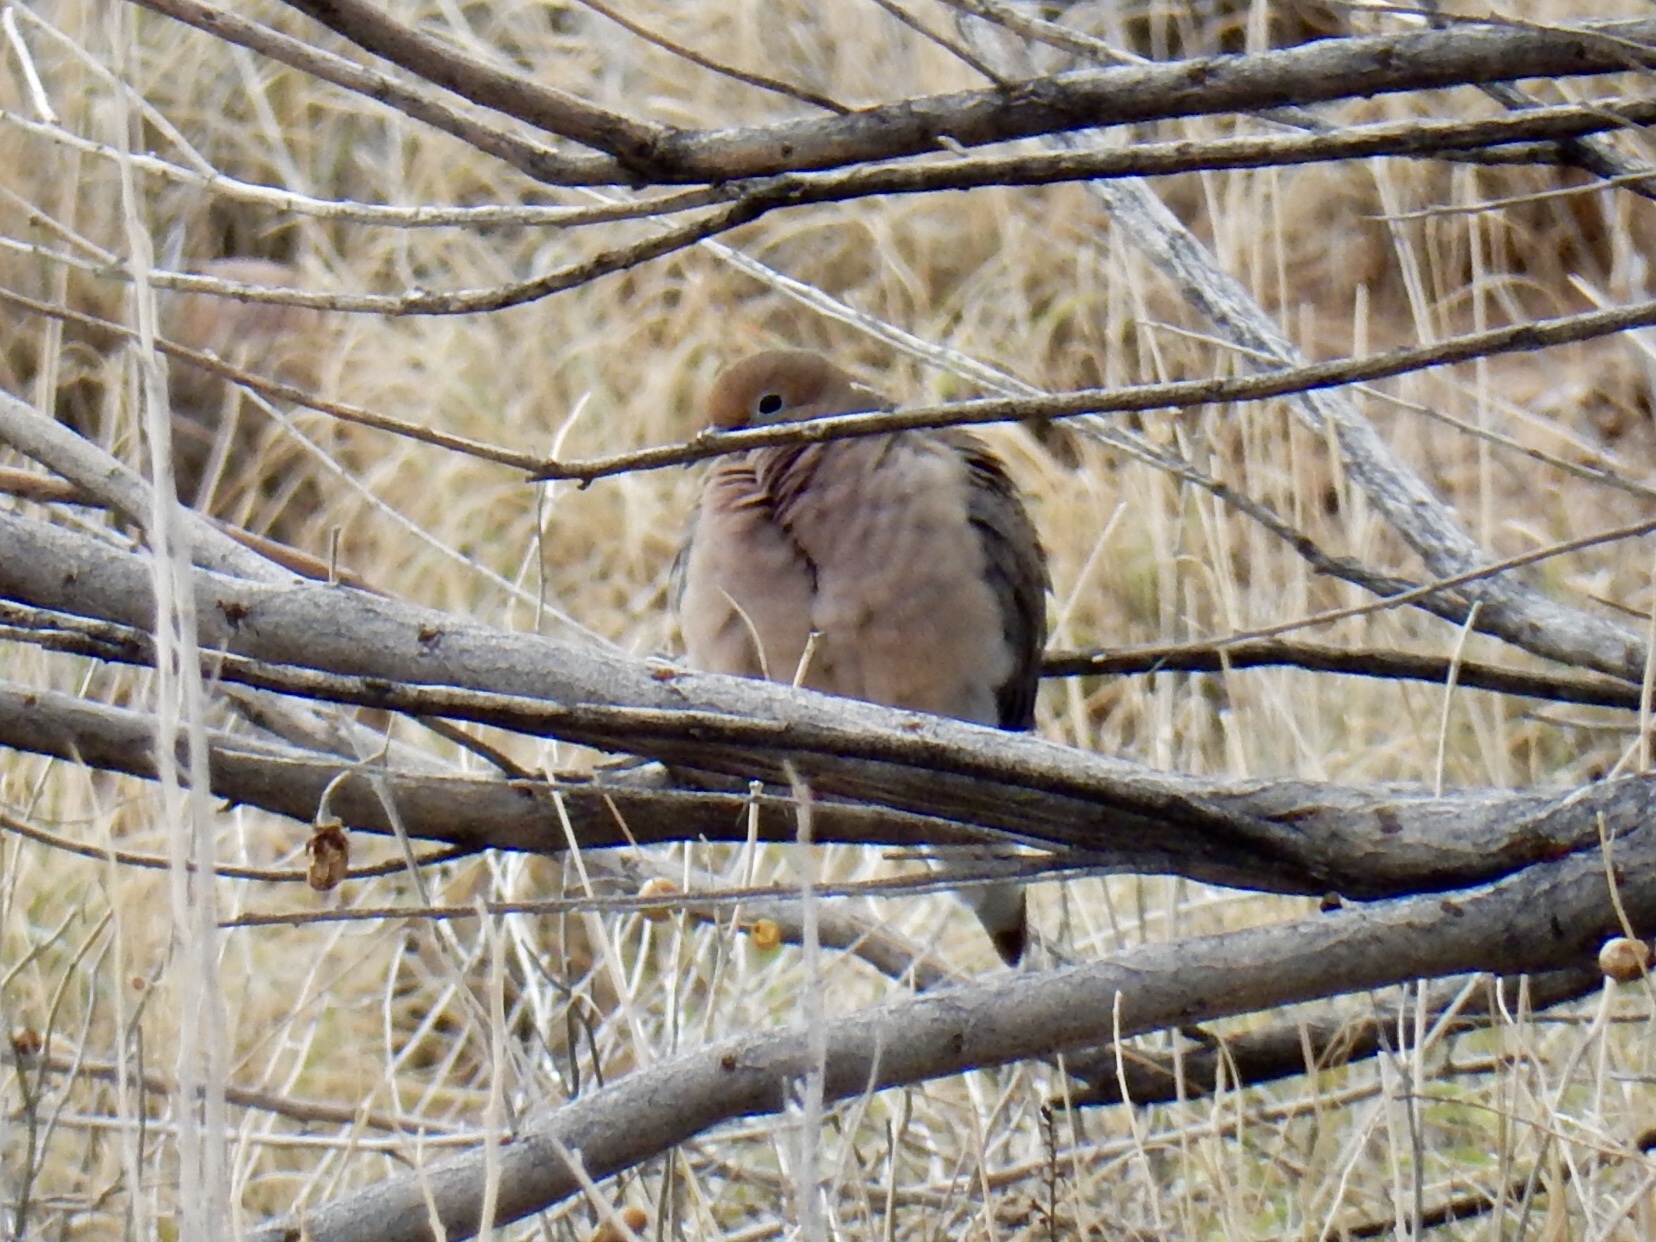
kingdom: Animalia
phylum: Chordata
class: Aves
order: Columbiformes
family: Columbidae
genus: Zenaida
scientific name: Zenaida macroura
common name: Mourning dove
